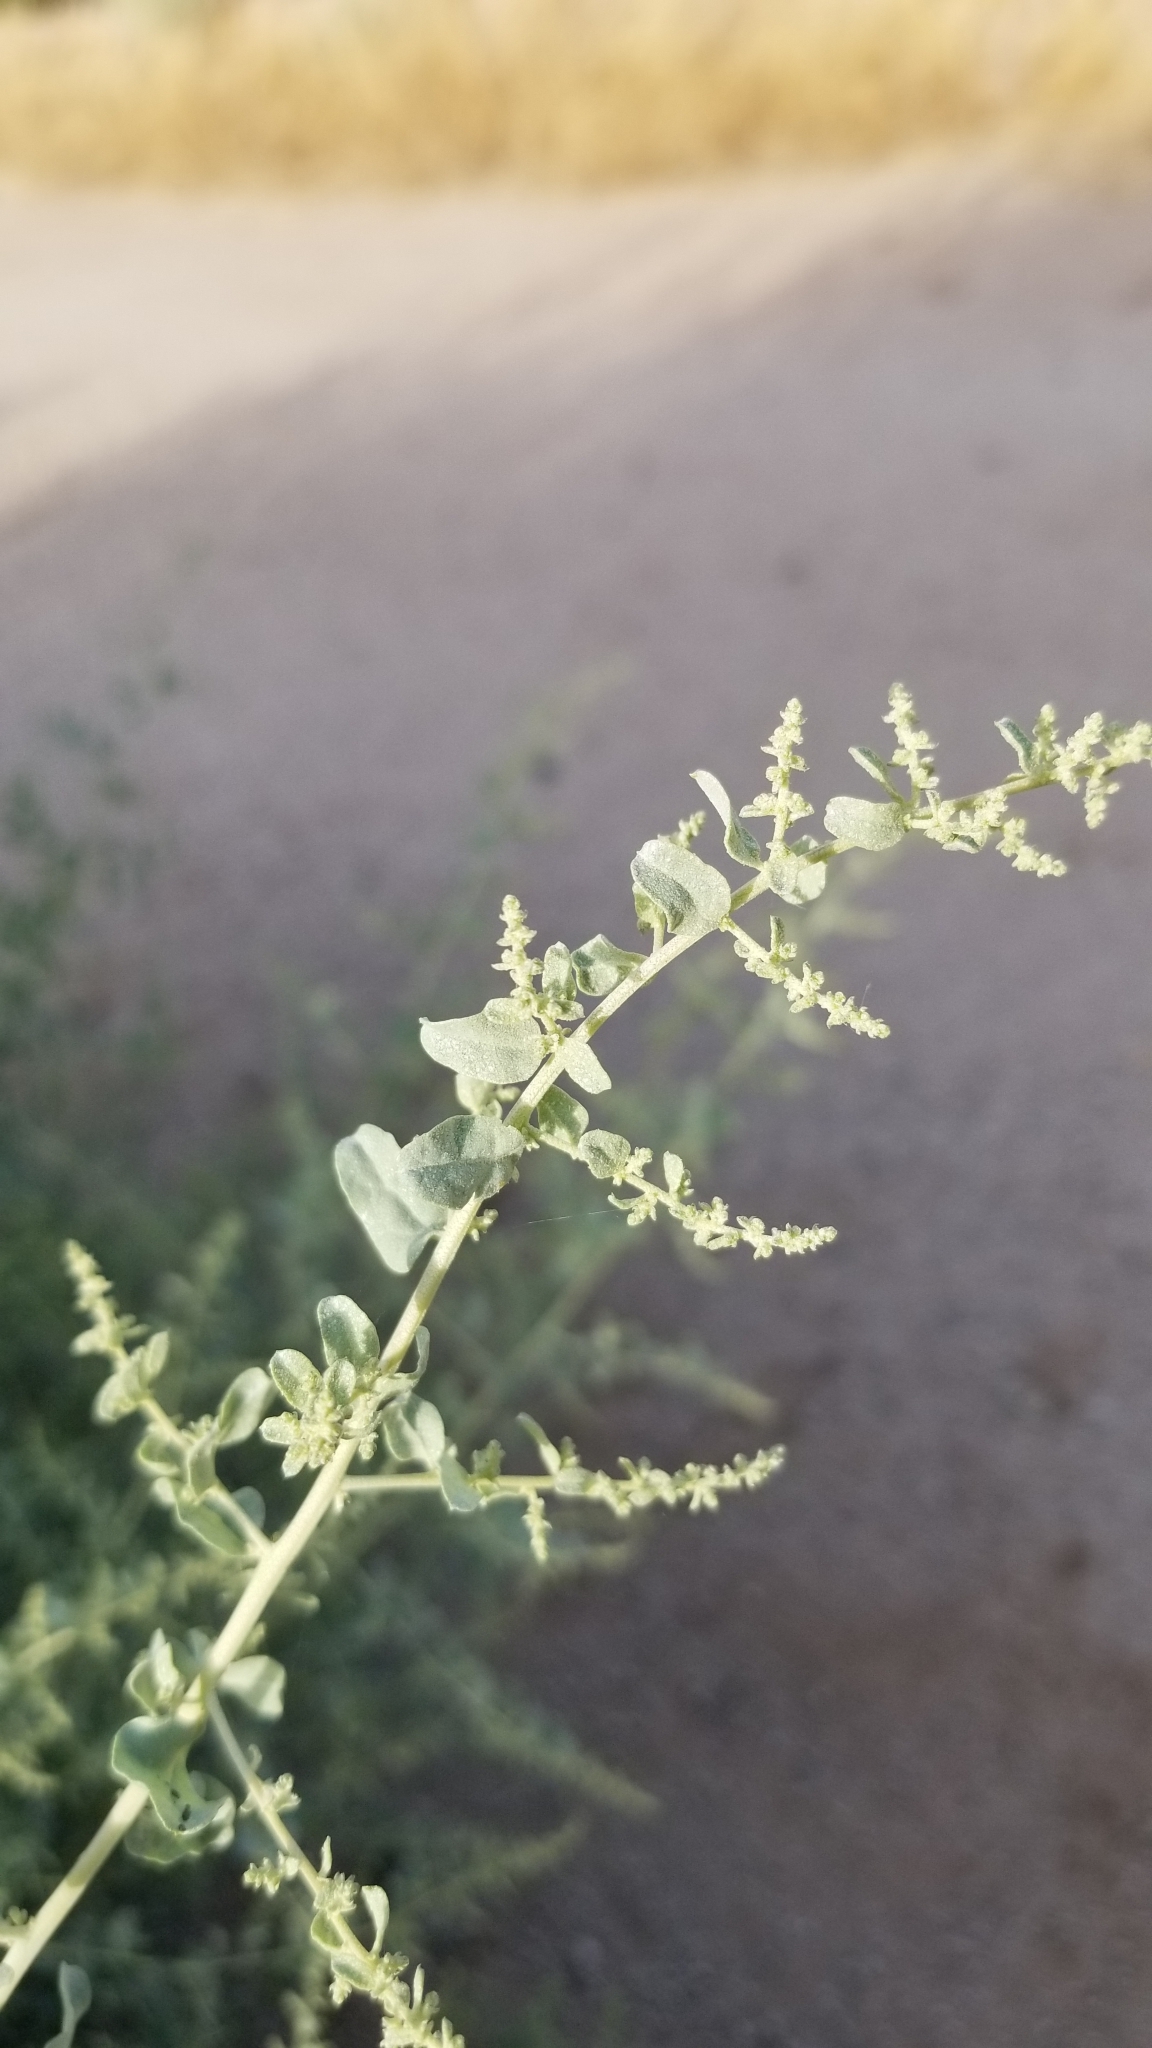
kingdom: Plantae
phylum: Tracheophyta
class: Magnoliopsida
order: Caryophyllales
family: Amaranthaceae
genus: Atriplex
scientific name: Atriplex lentiformis
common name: Big saltbush
